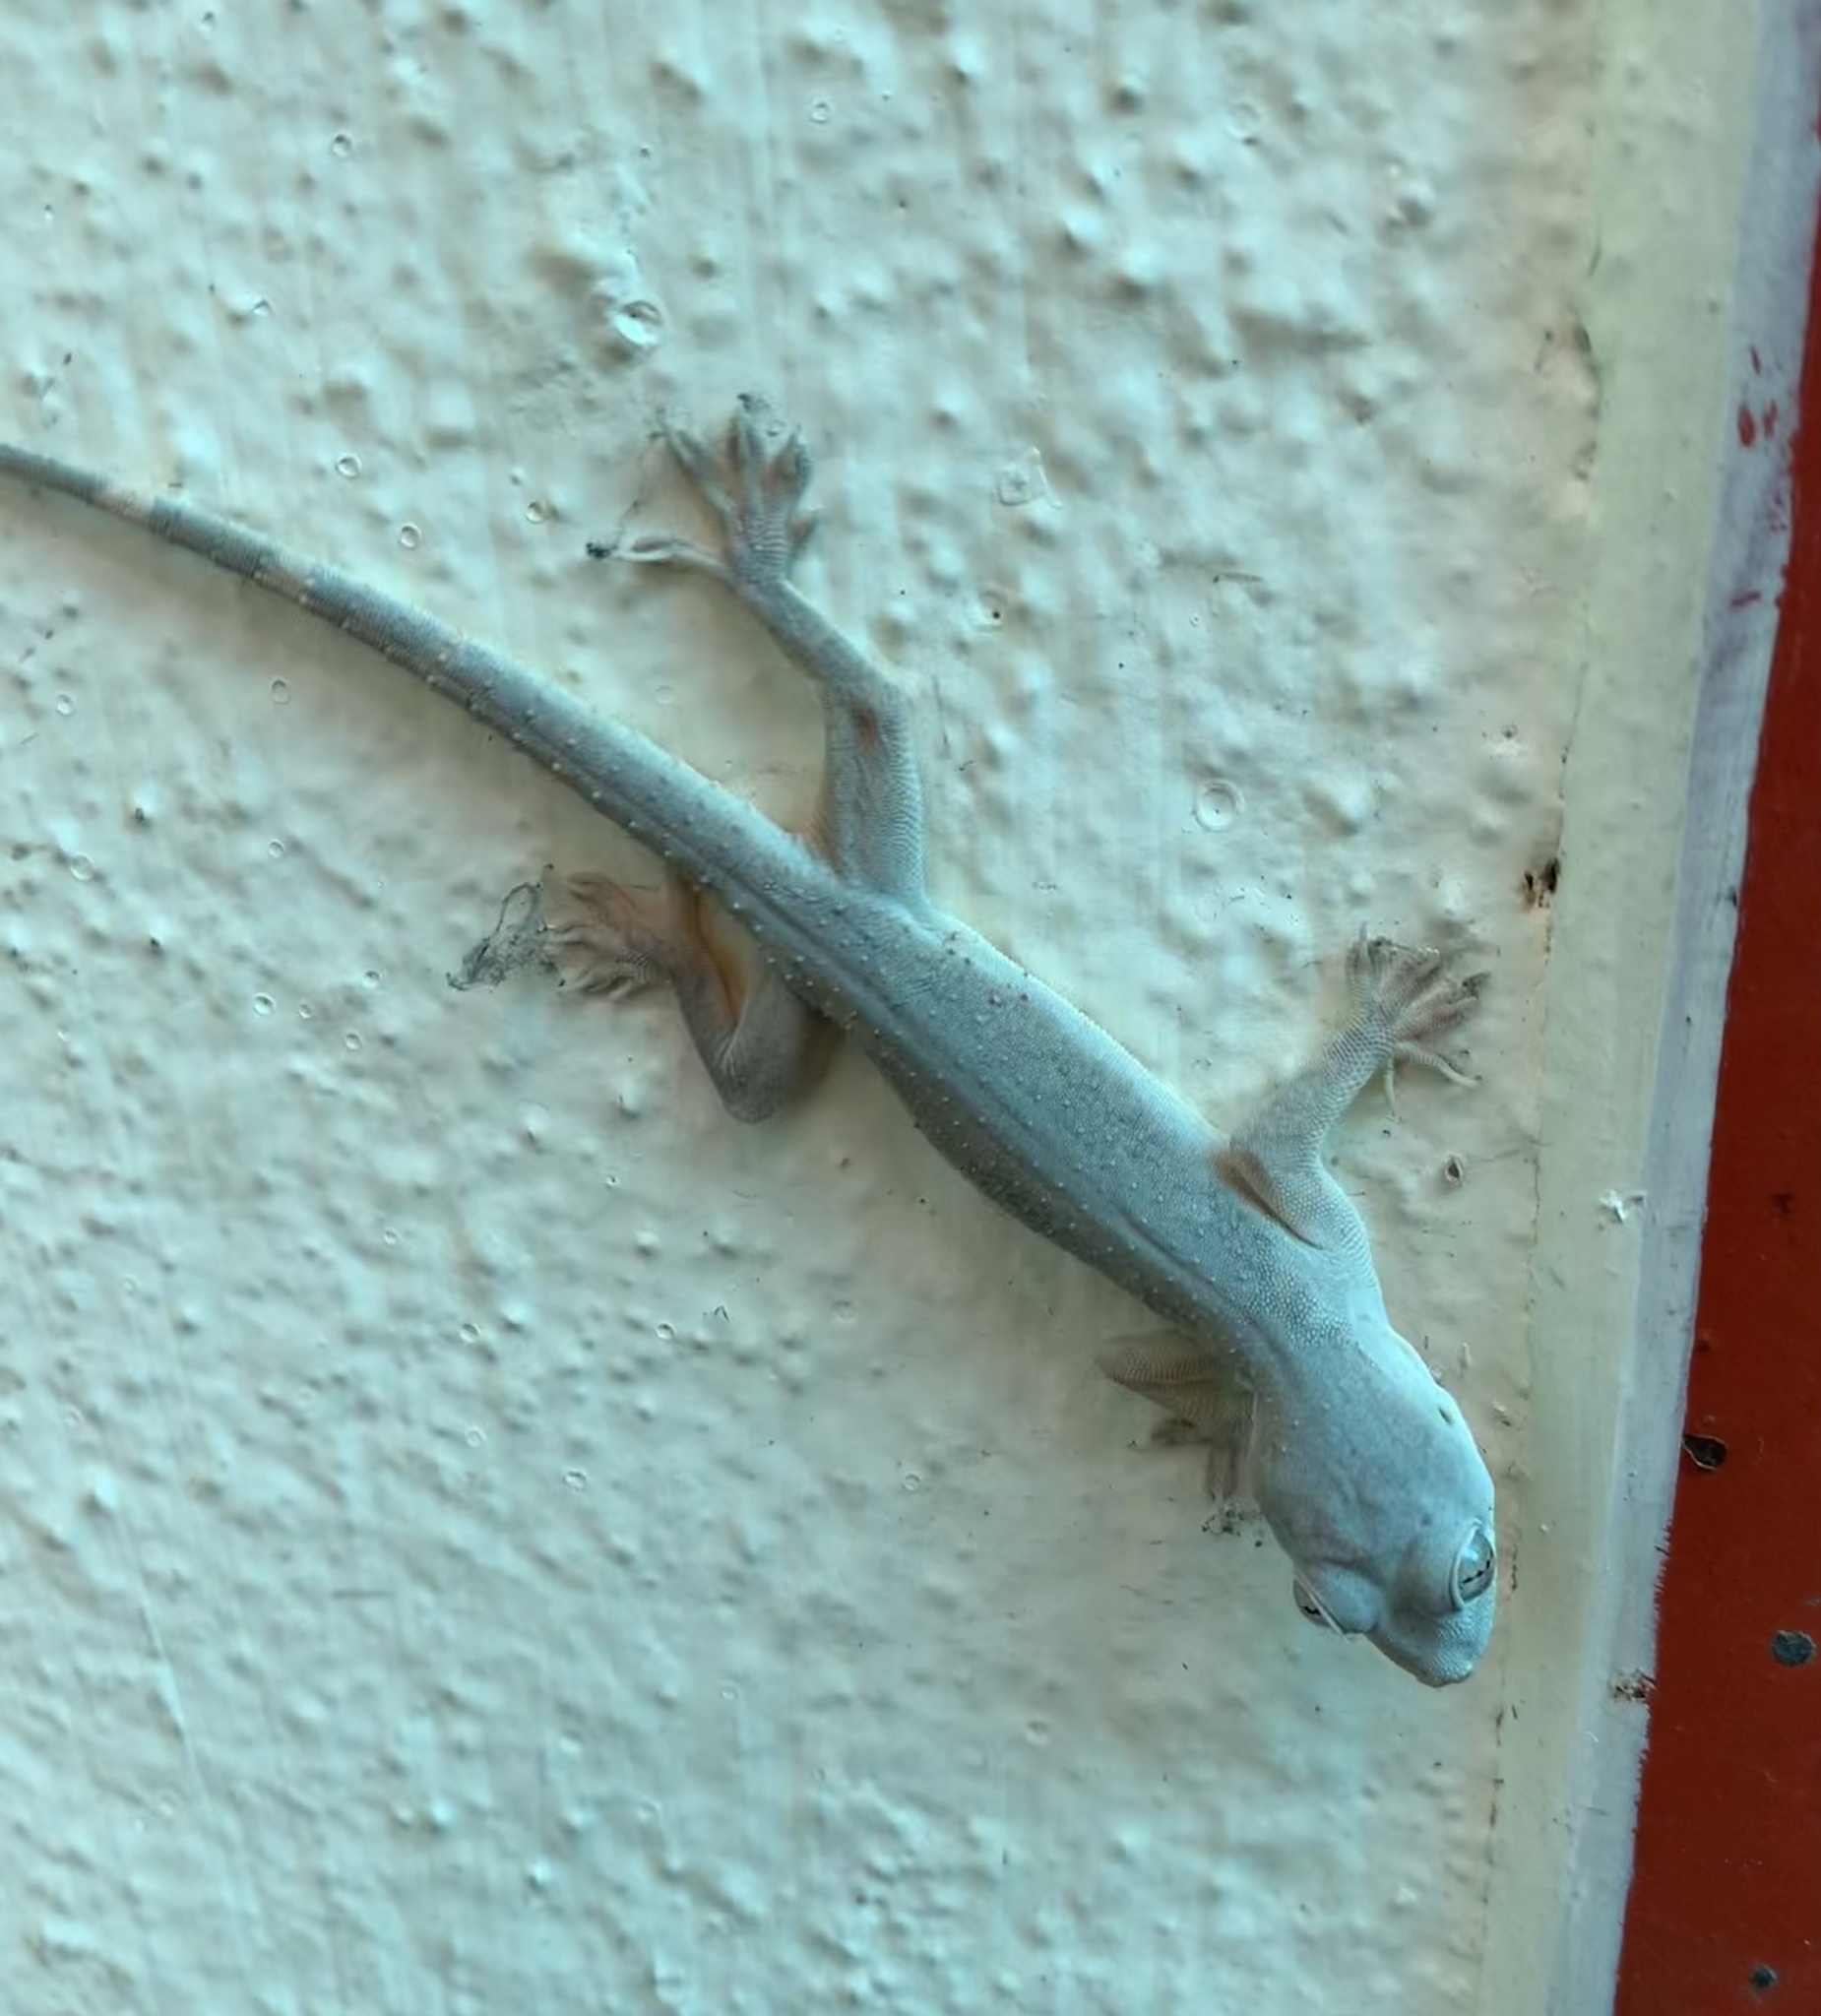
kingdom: Animalia
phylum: Chordata
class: Squamata
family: Gekkonidae
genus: Hemidactylus
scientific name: Hemidactylus flaviviridis
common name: Northern house gecko
